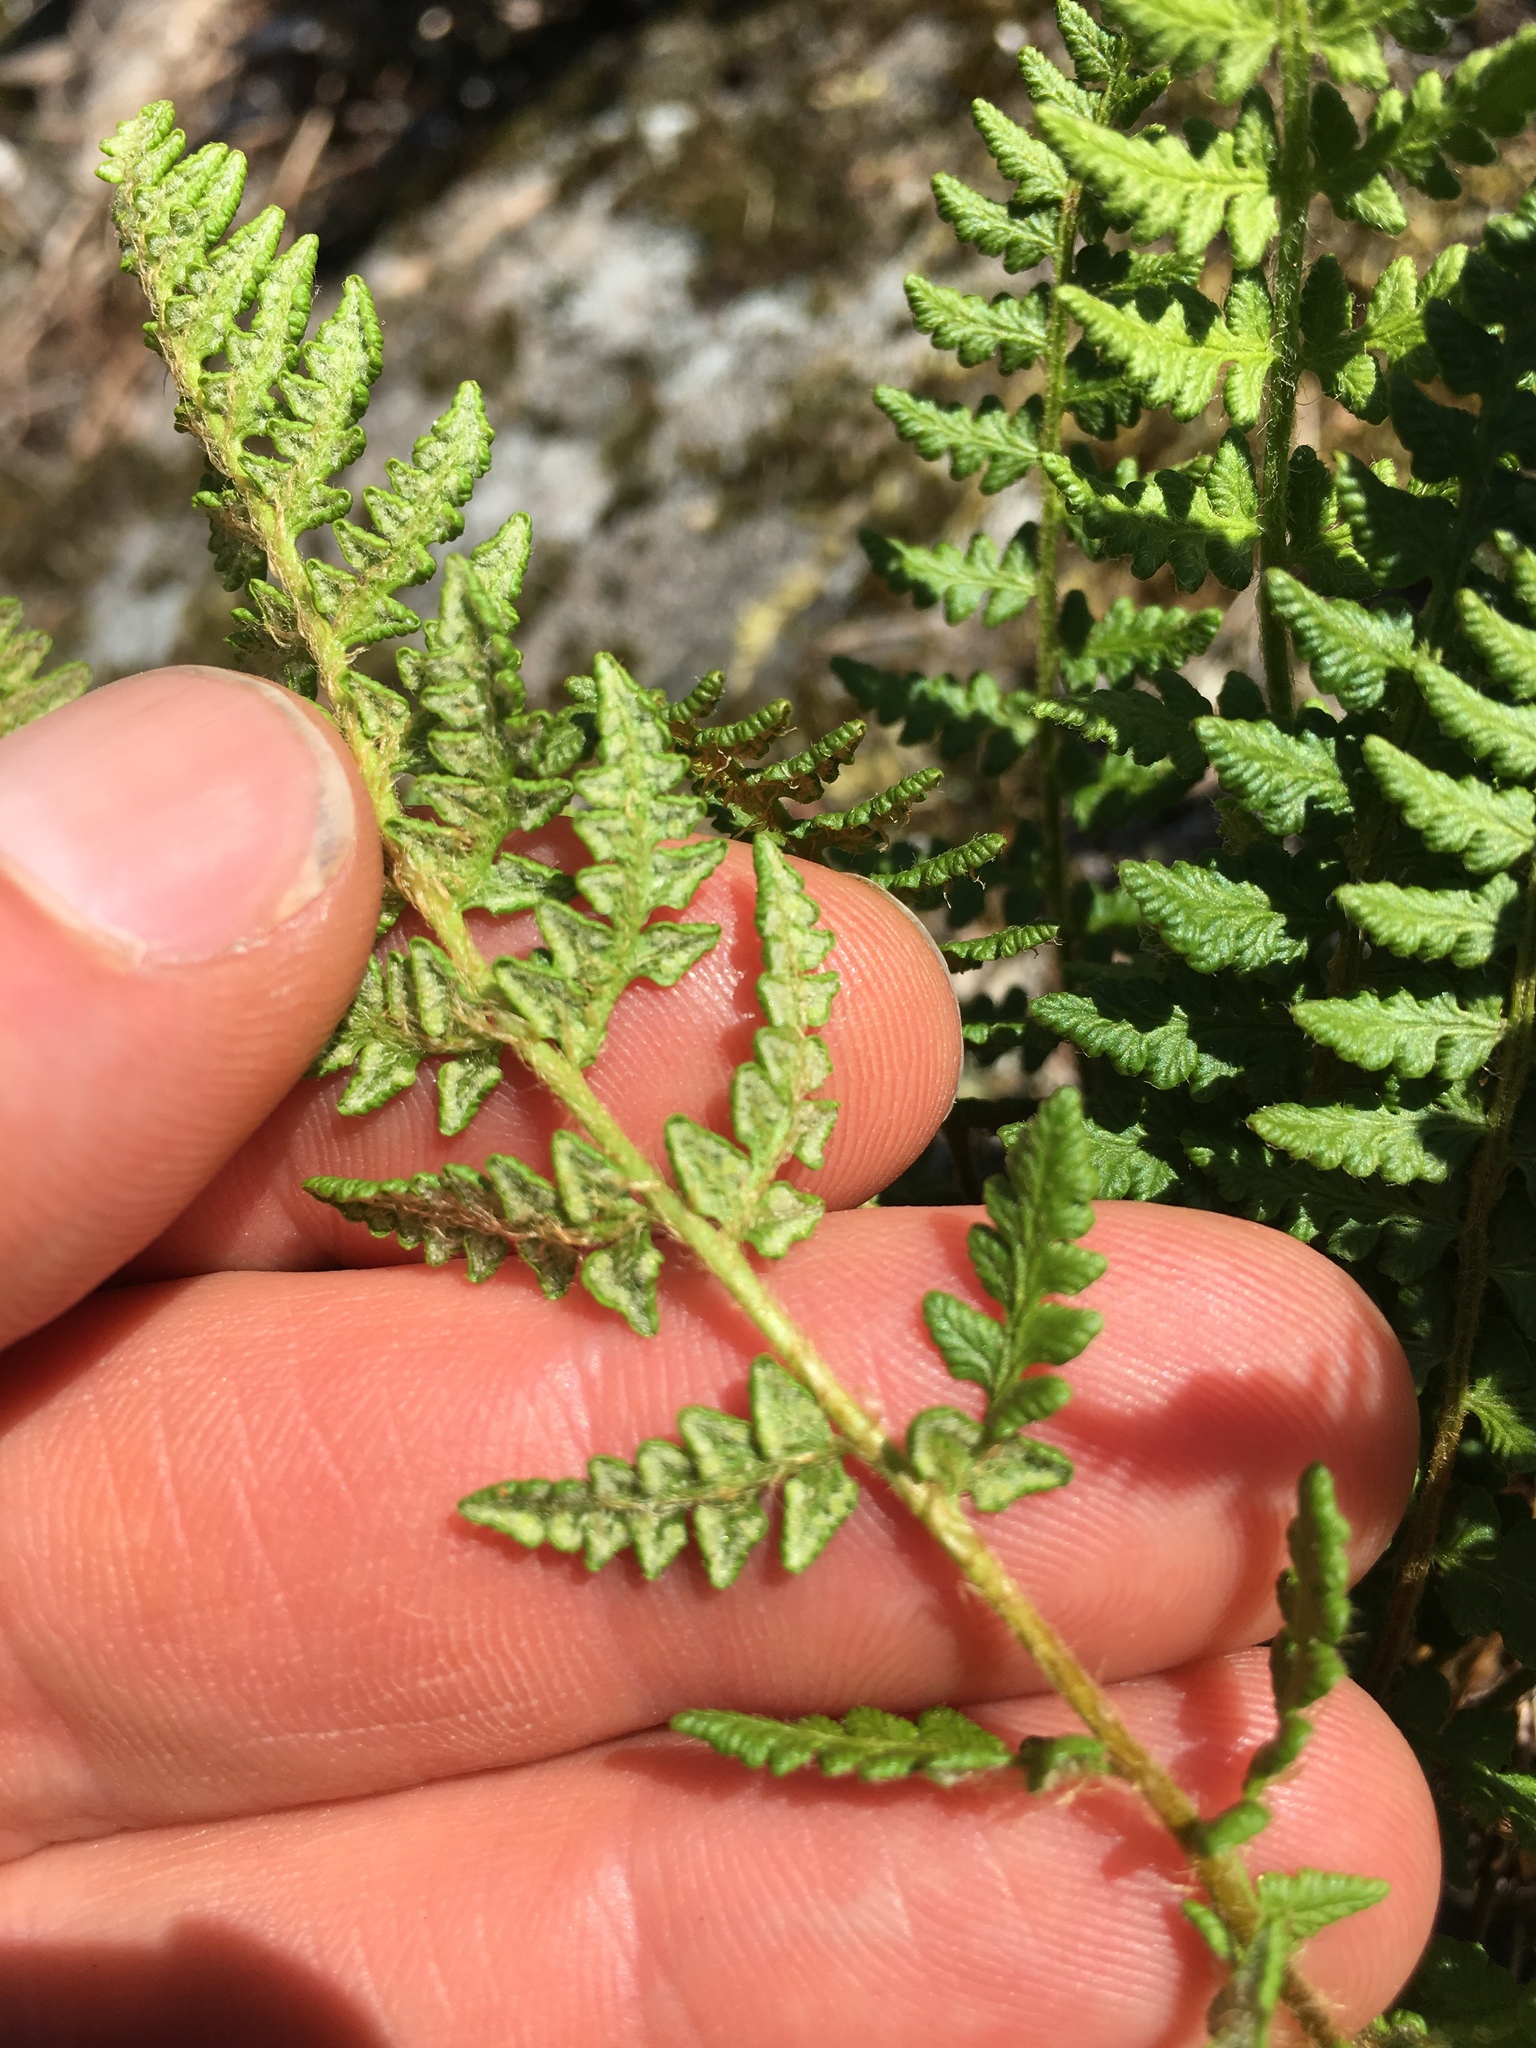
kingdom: Plantae
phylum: Tracheophyta
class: Polypodiopsida
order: Polypodiales
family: Woodsiaceae
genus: Woodsia
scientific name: Woodsia ilvensis
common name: Fragrant woodsia
